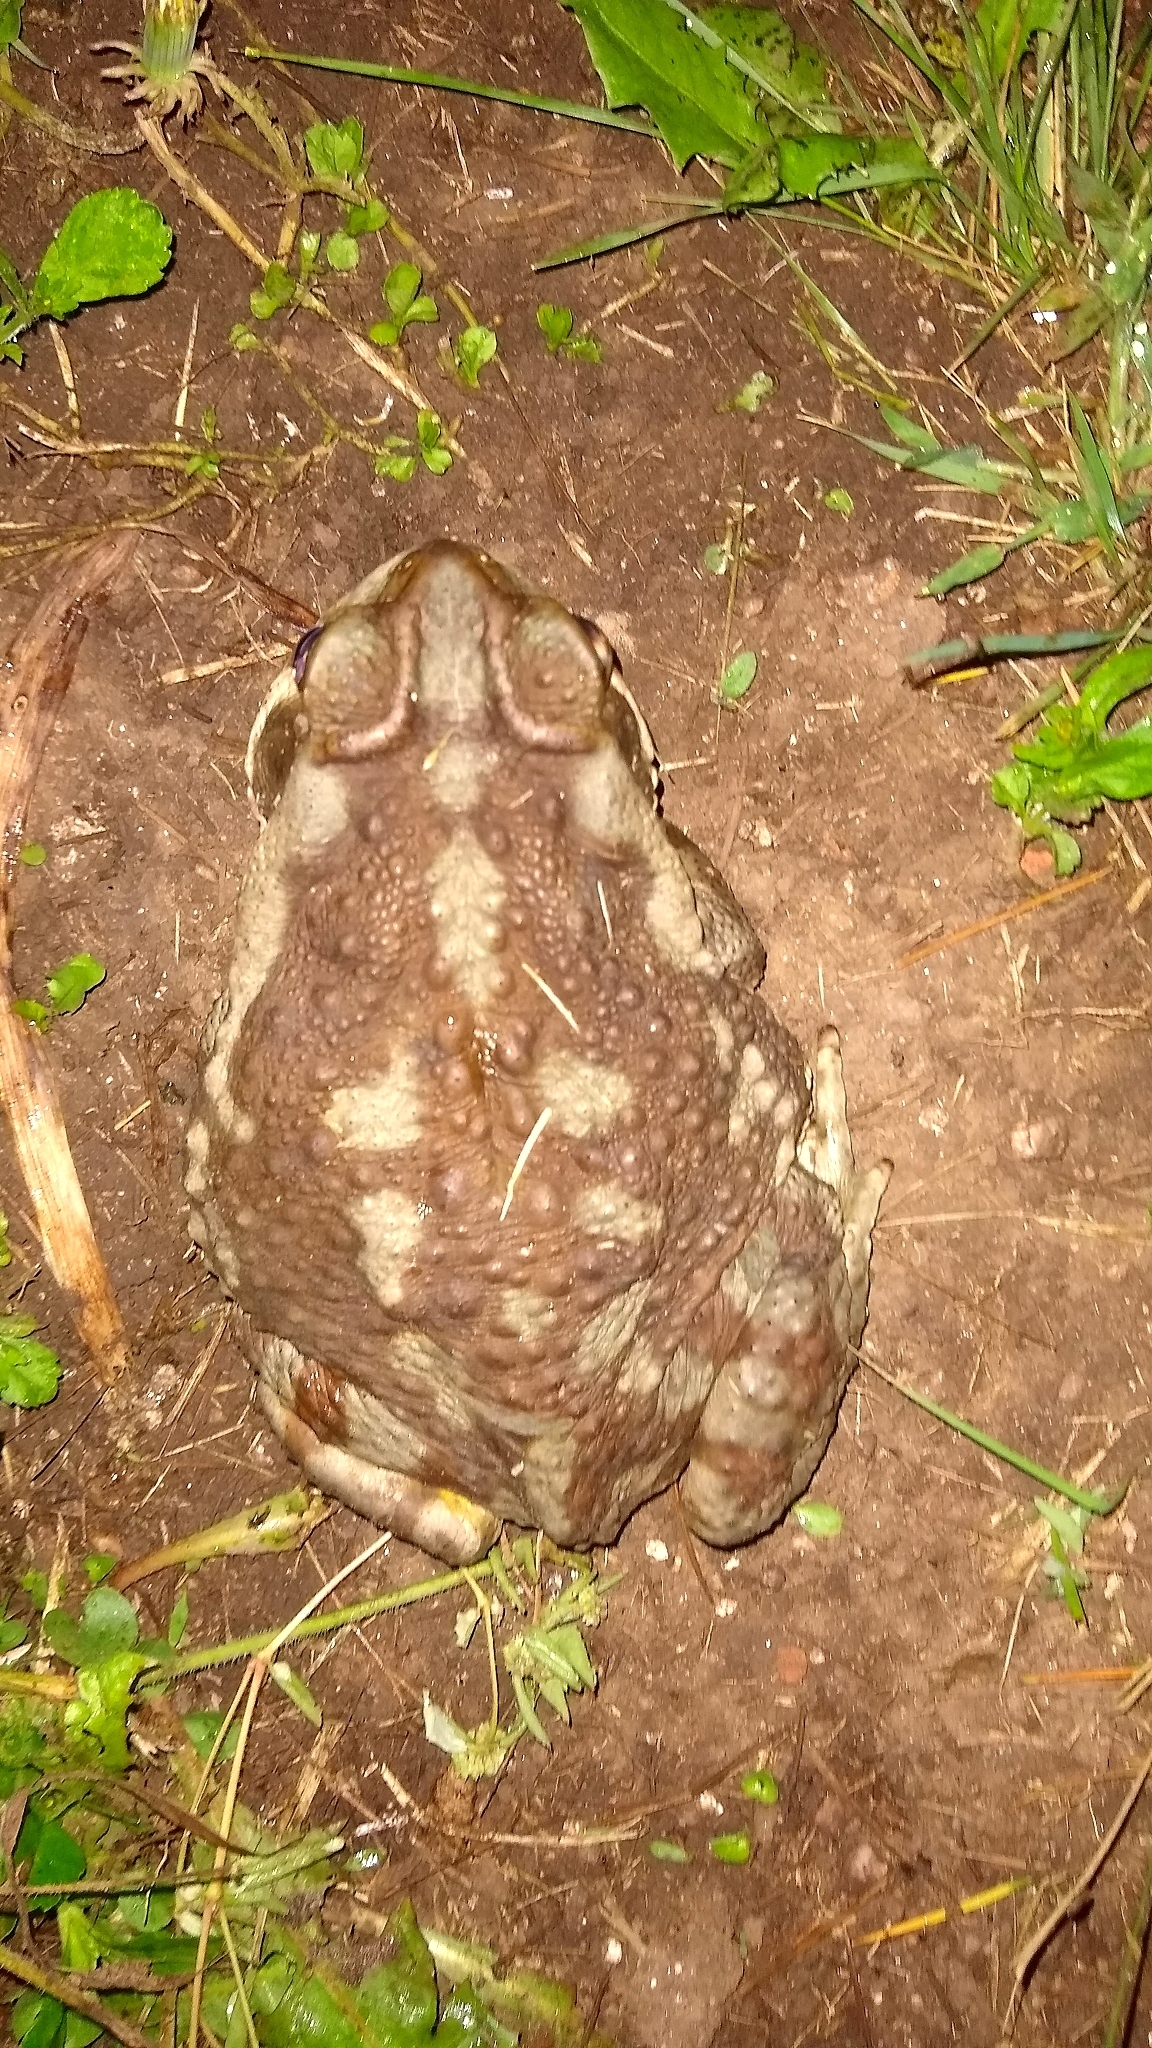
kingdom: Animalia
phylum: Chordata
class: Amphibia
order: Anura
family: Bufonidae
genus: Rhinella
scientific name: Rhinella arenarum
